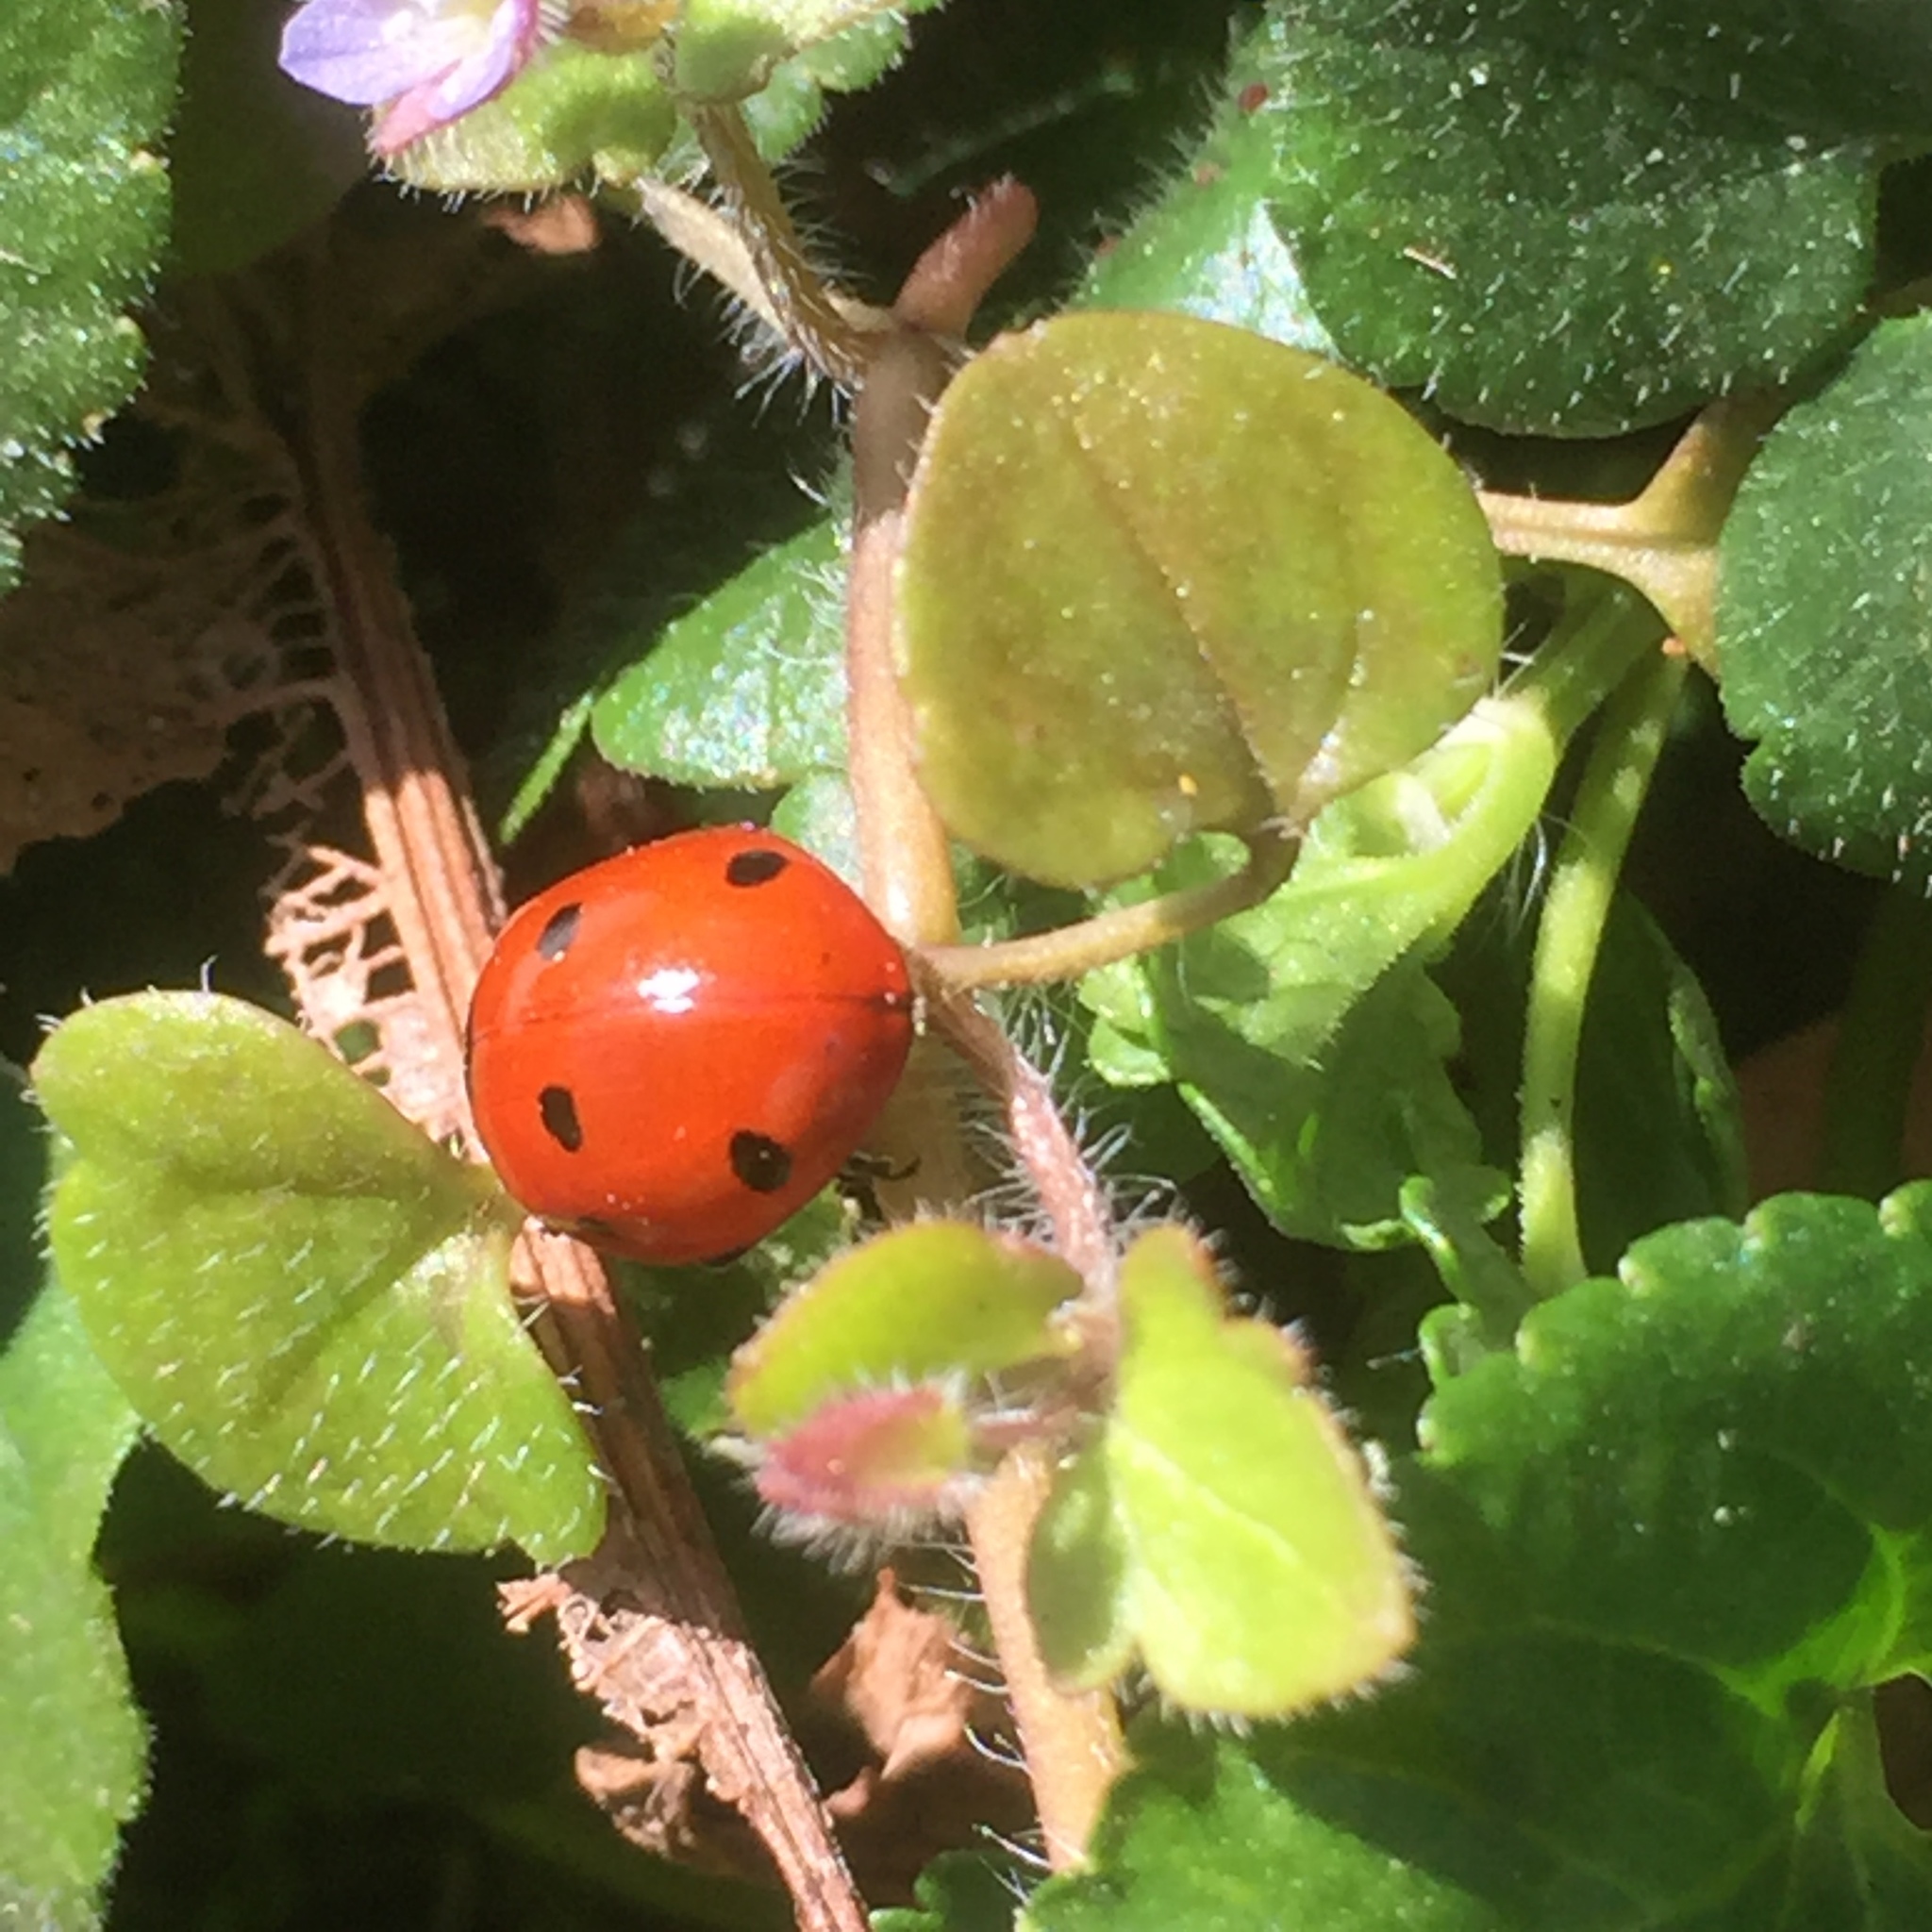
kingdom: Animalia
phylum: Arthropoda
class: Insecta
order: Coleoptera
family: Coccinellidae
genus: Coccinella
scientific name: Coccinella septempunctata
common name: Sevenspotted lady beetle
